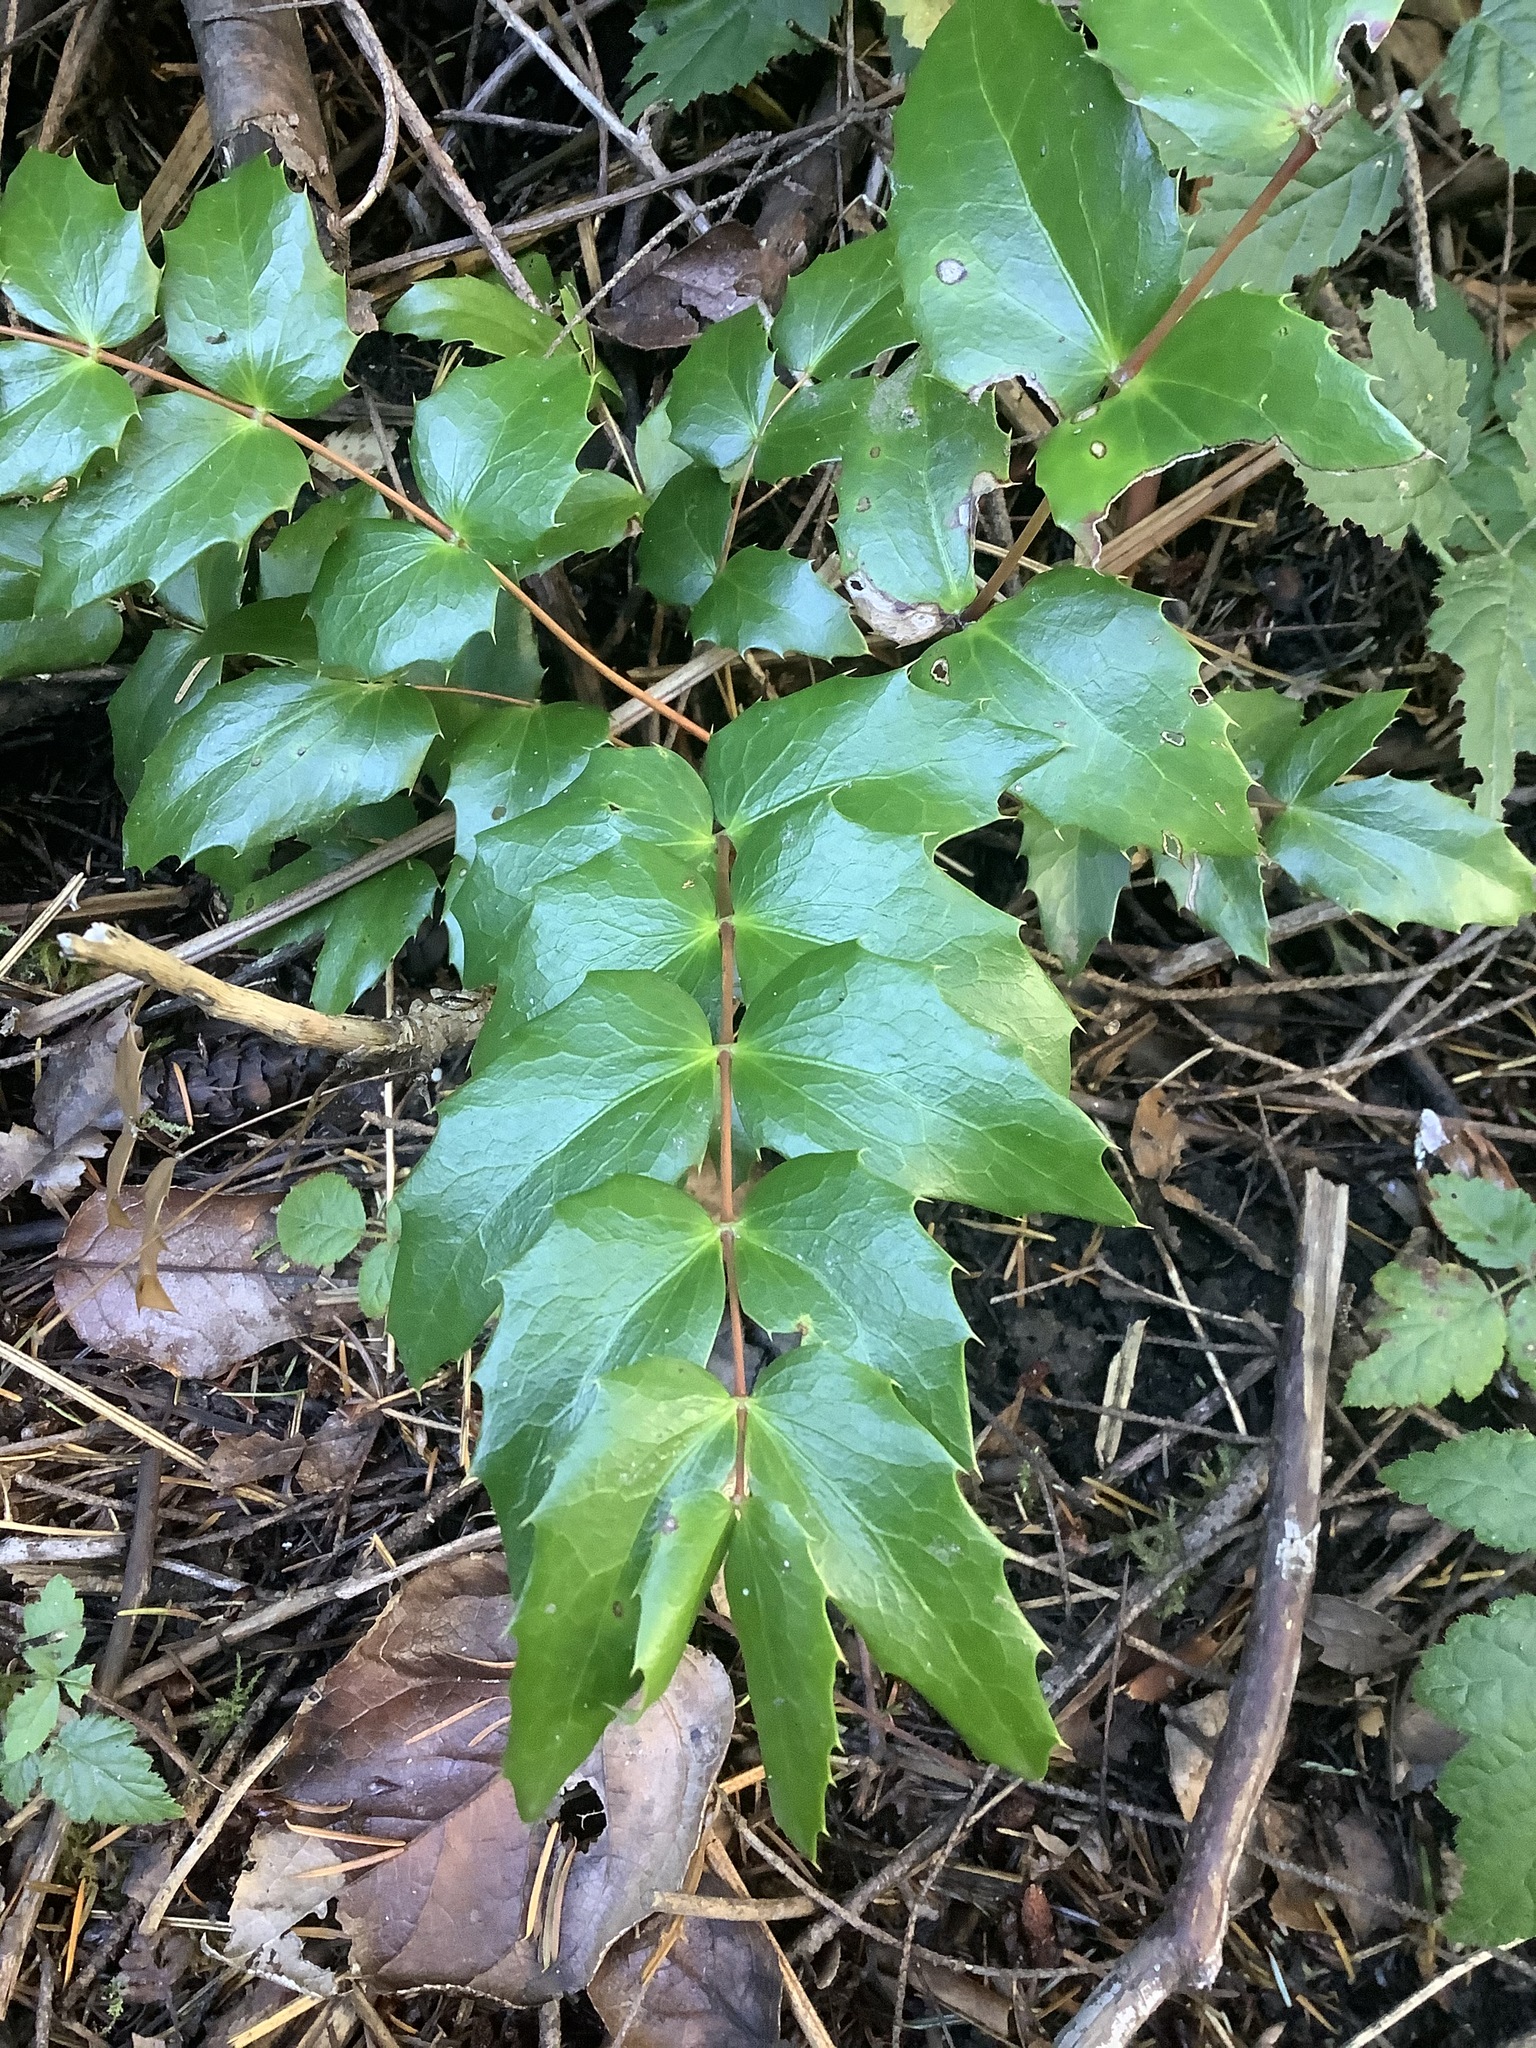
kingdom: Plantae
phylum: Tracheophyta
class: Magnoliopsida
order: Ranunculales
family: Berberidaceae
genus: Mahonia
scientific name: Mahonia nervosa
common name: Cascade oregon-grape
